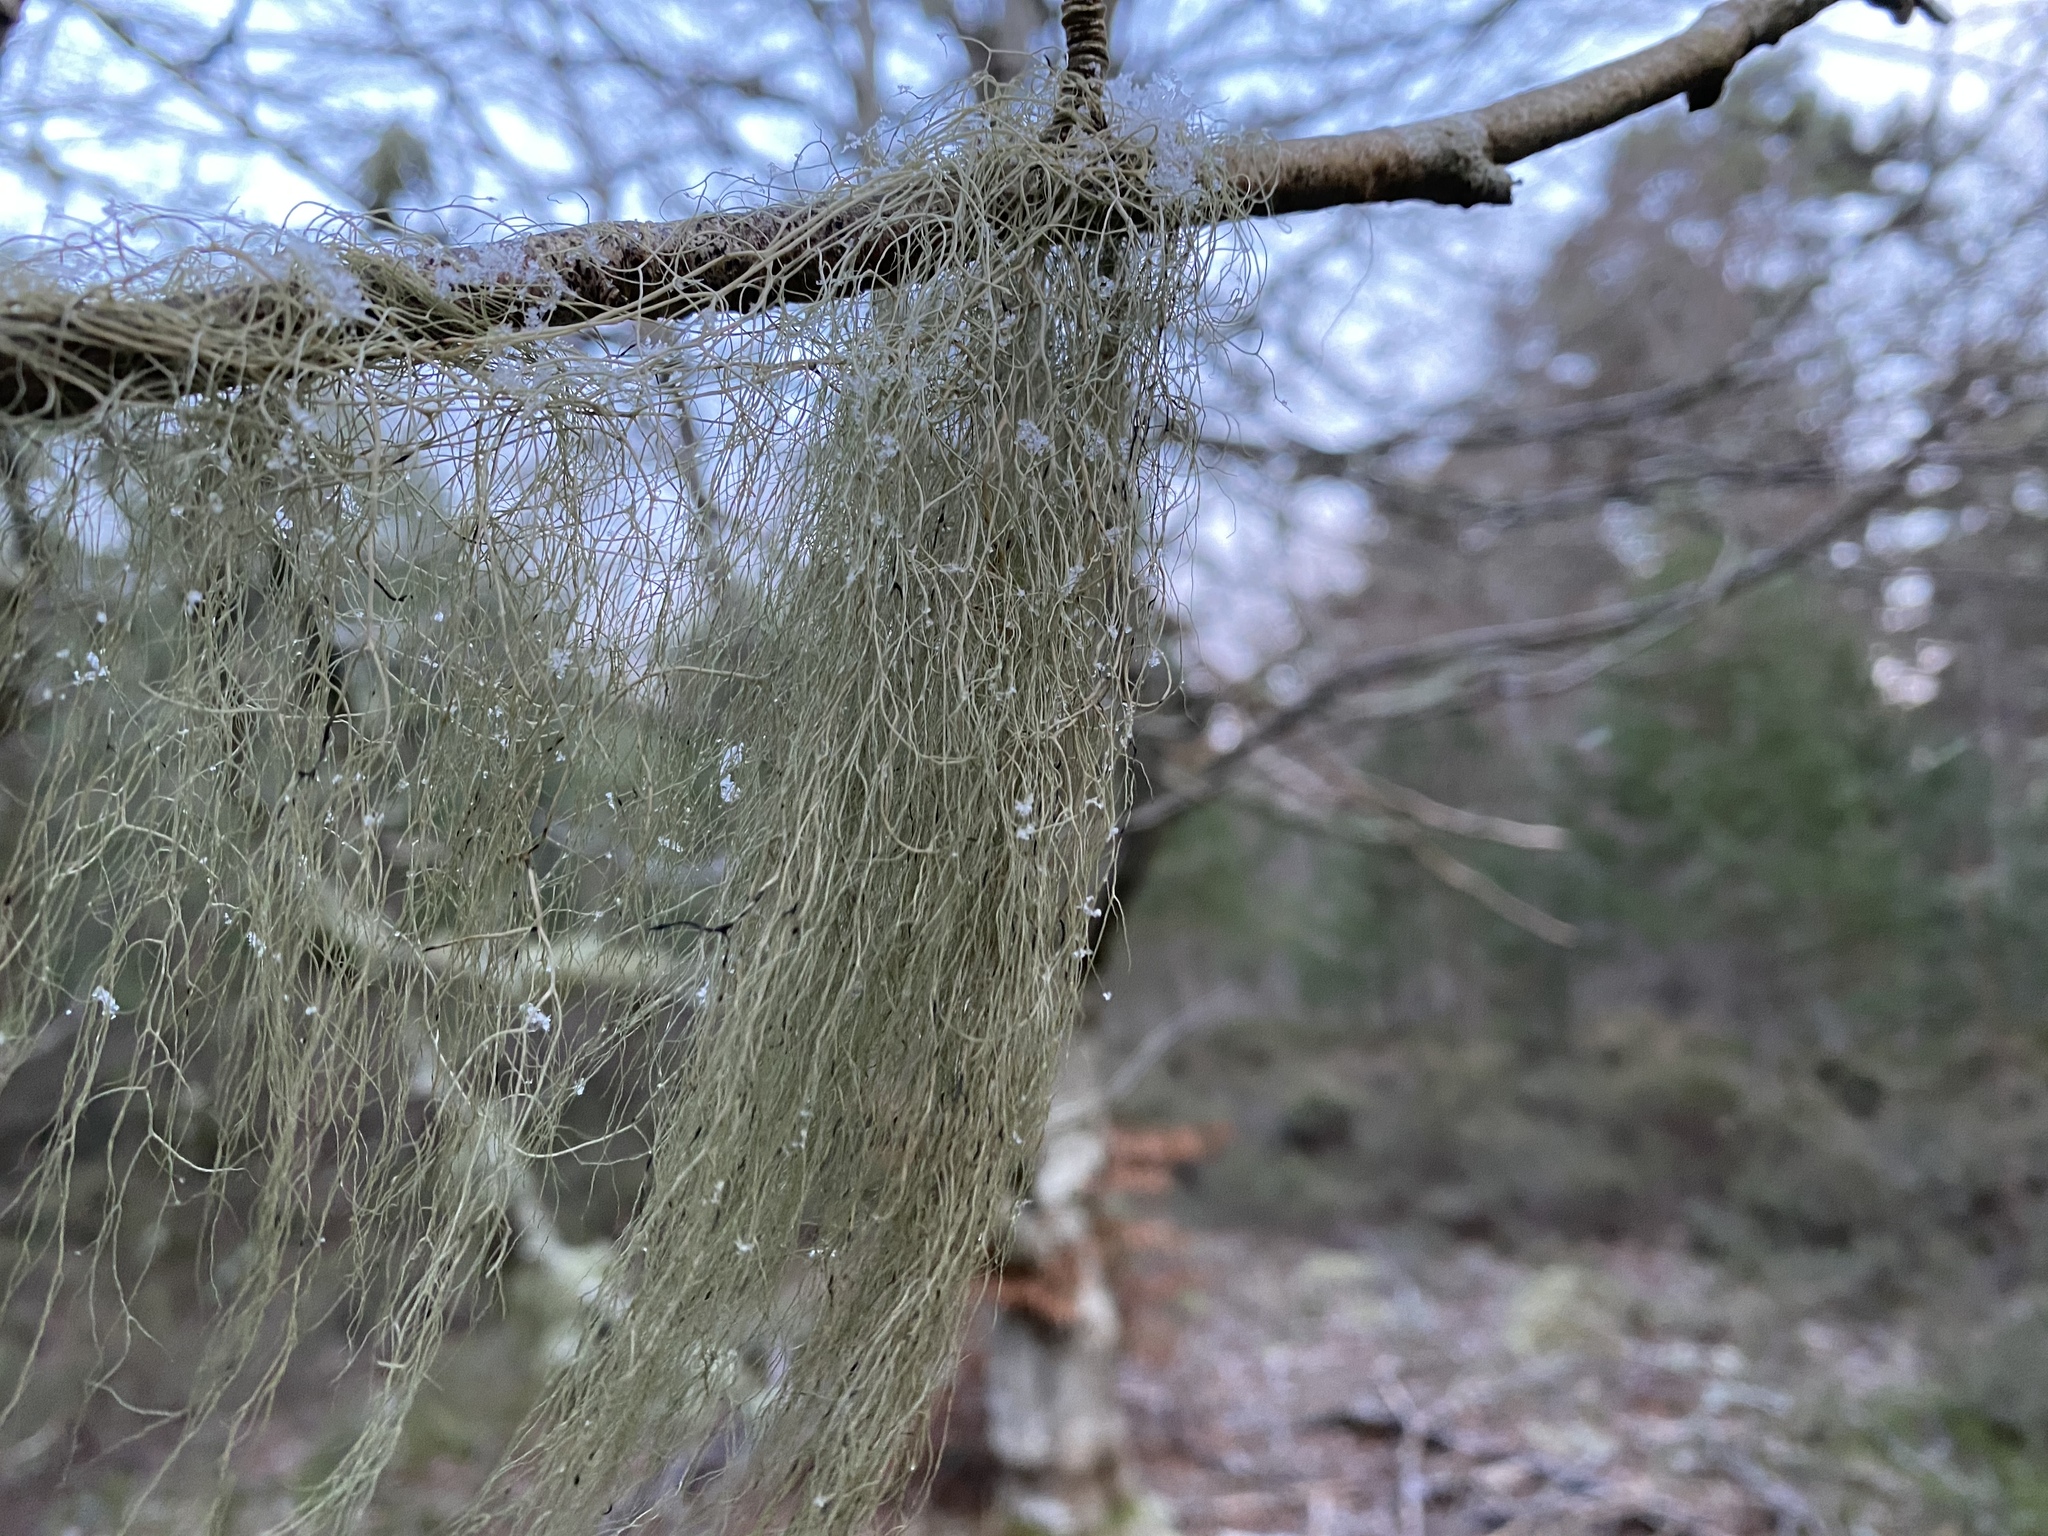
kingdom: Fungi
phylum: Ascomycota
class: Lecanoromycetes
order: Lecanorales
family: Parmeliaceae
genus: Bryoria
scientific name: Bryoria fuscescens
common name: Pale-footed horsehair lichen
